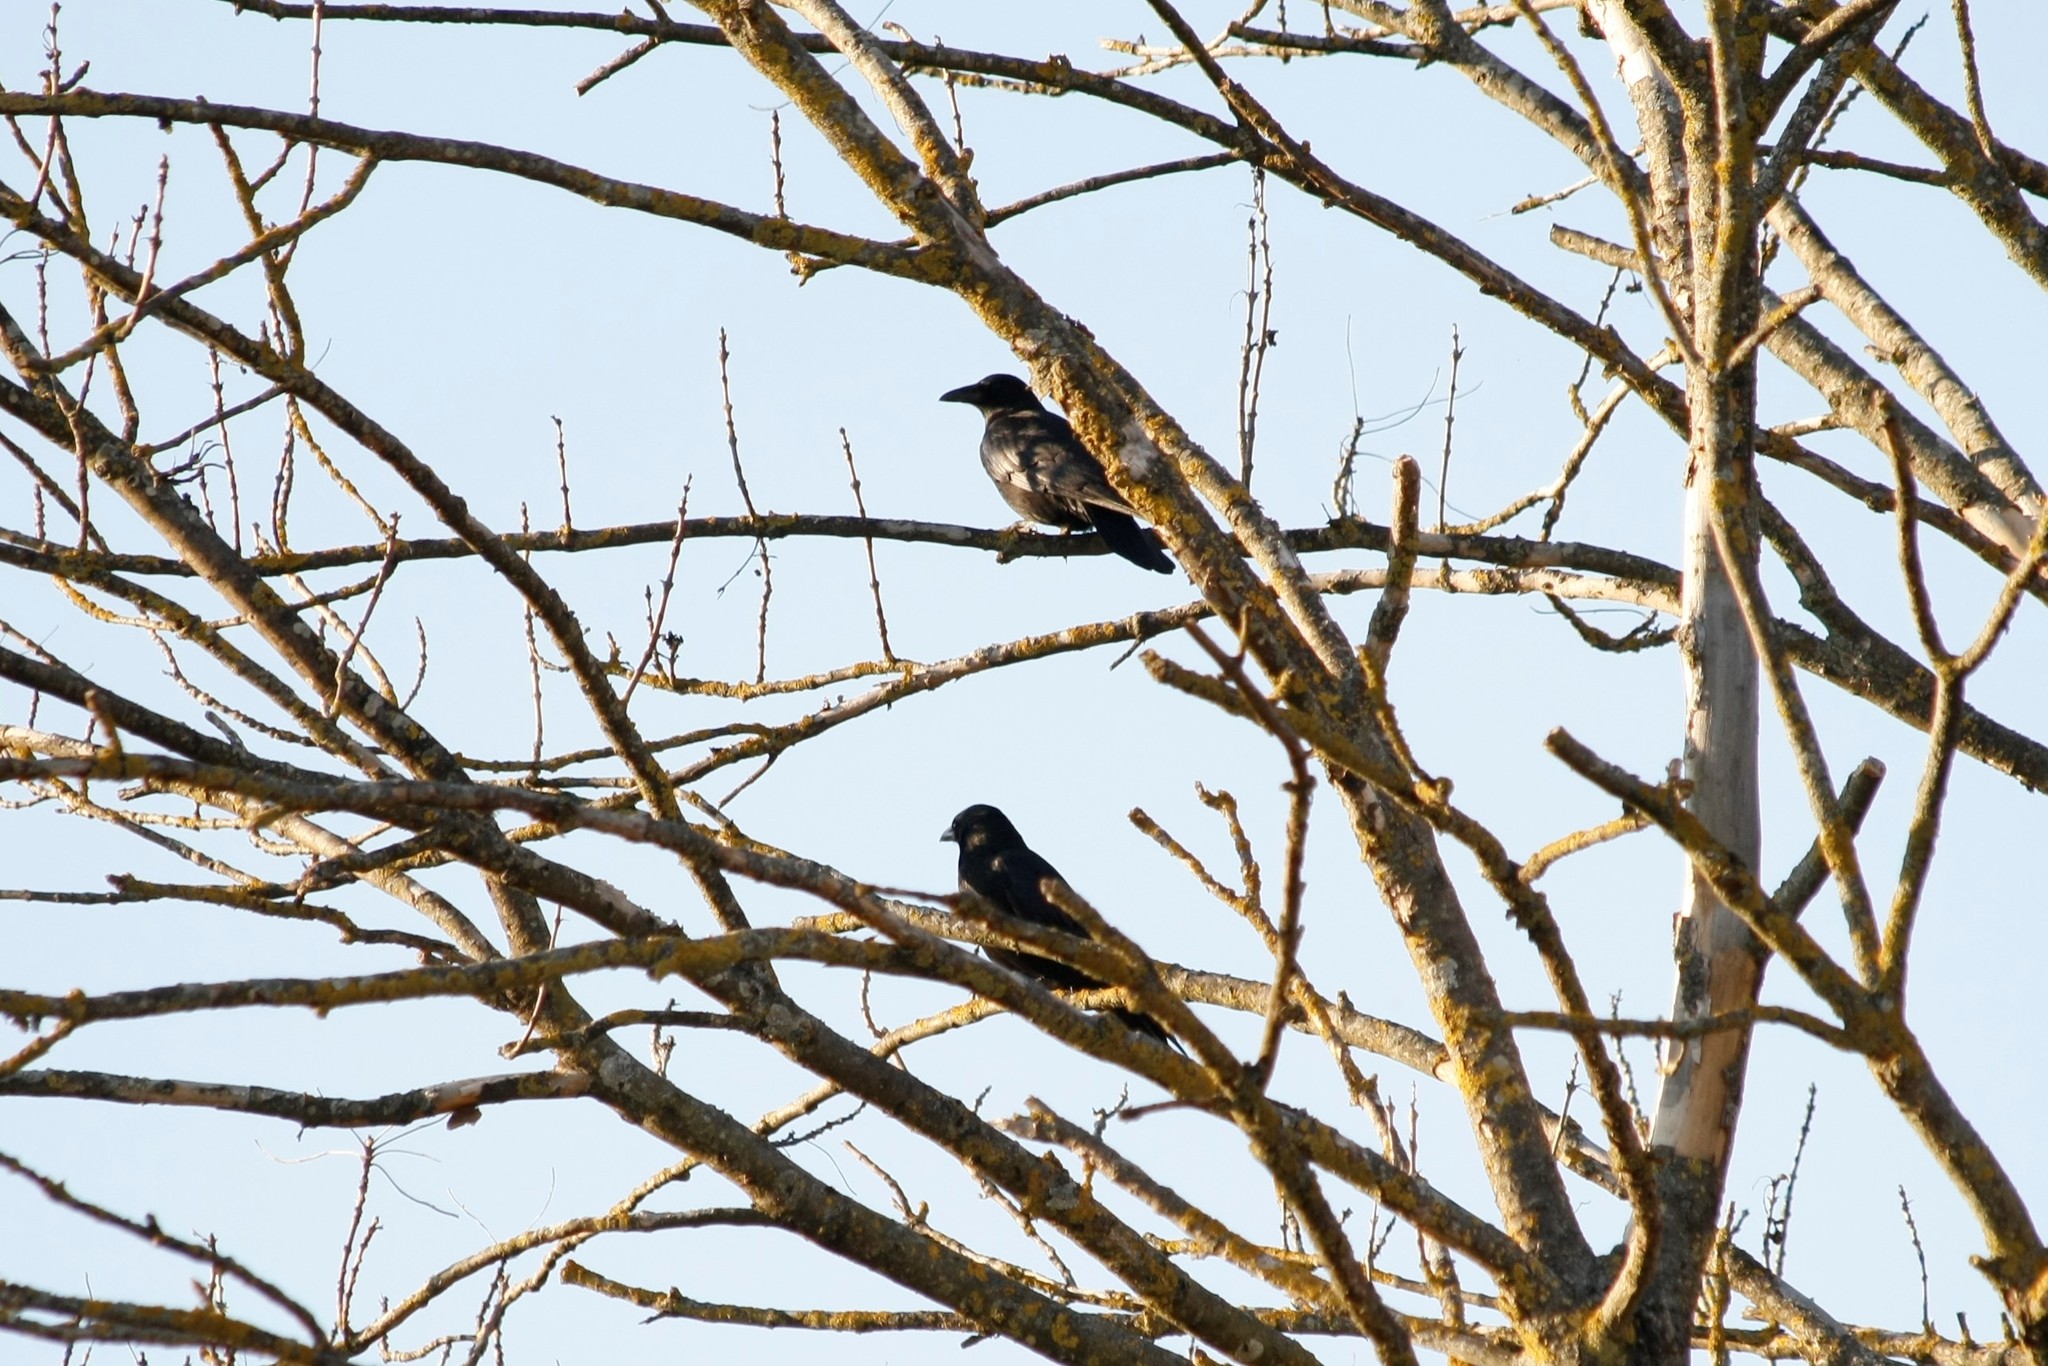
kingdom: Animalia
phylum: Chordata
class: Aves
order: Passeriformes
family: Corvidae
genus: Corvus
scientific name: Corvus corone
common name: Carrion crow
